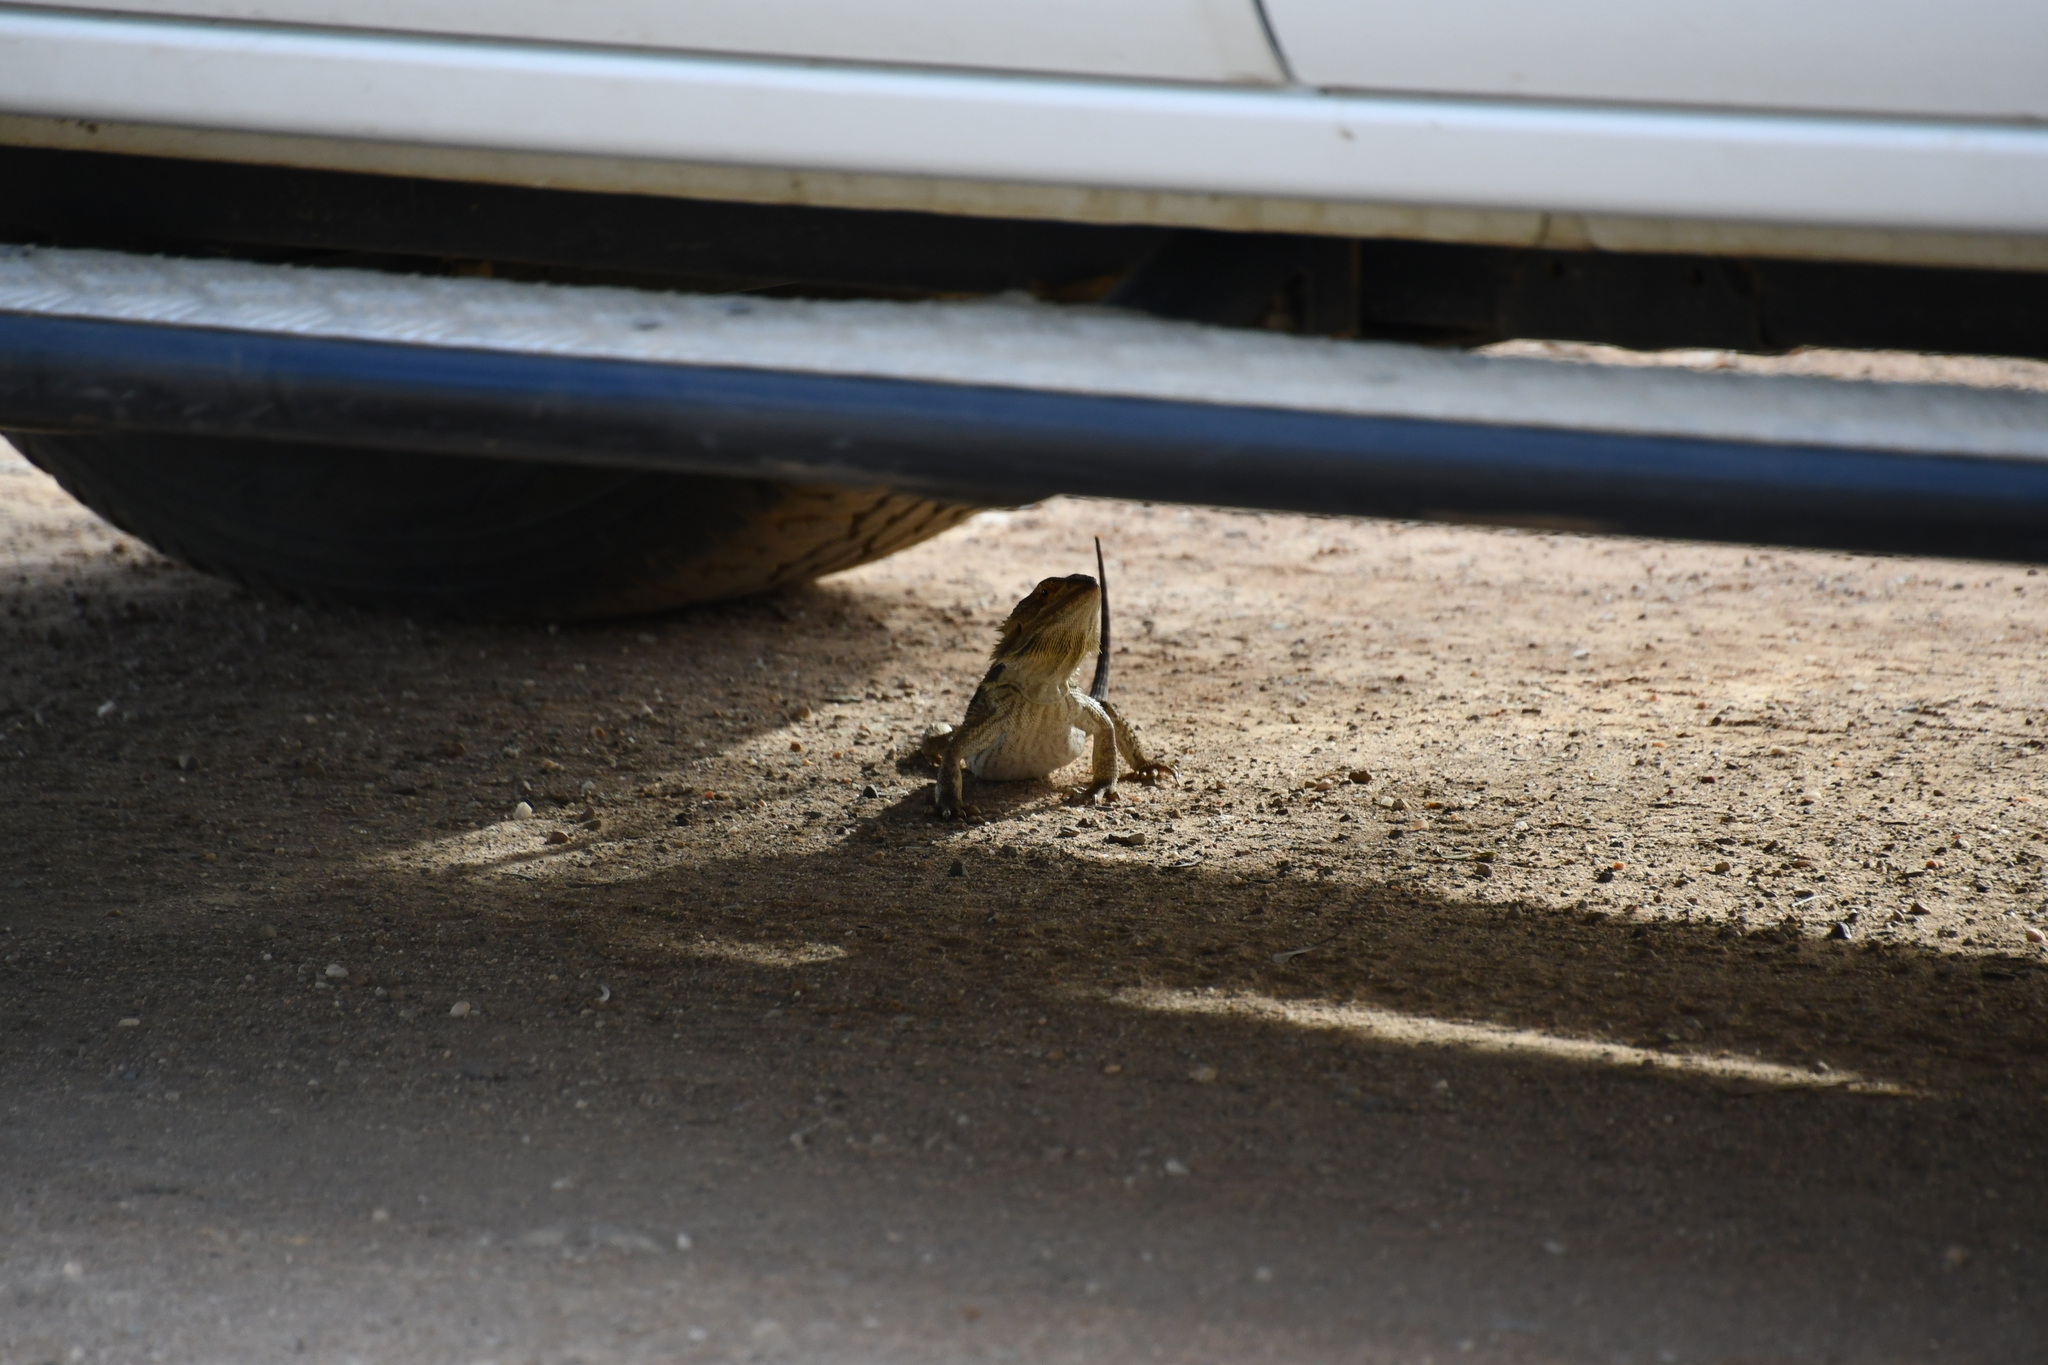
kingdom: Animalia
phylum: Chordata
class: Squamata
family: Agamidae
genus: Pogona
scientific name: Pogona vitticeps
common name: Central bearded dragon
